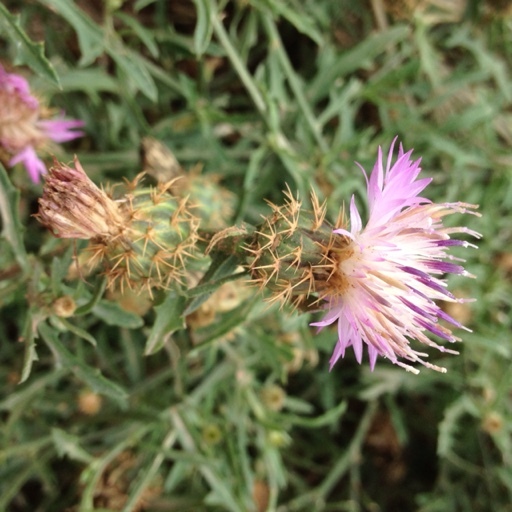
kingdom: Plantae
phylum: Tracheophyta
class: Magnoliopsida
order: Asterales
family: Asteraceae
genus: Centaurea
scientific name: Centaurea aspera
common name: Rough star-thistle
